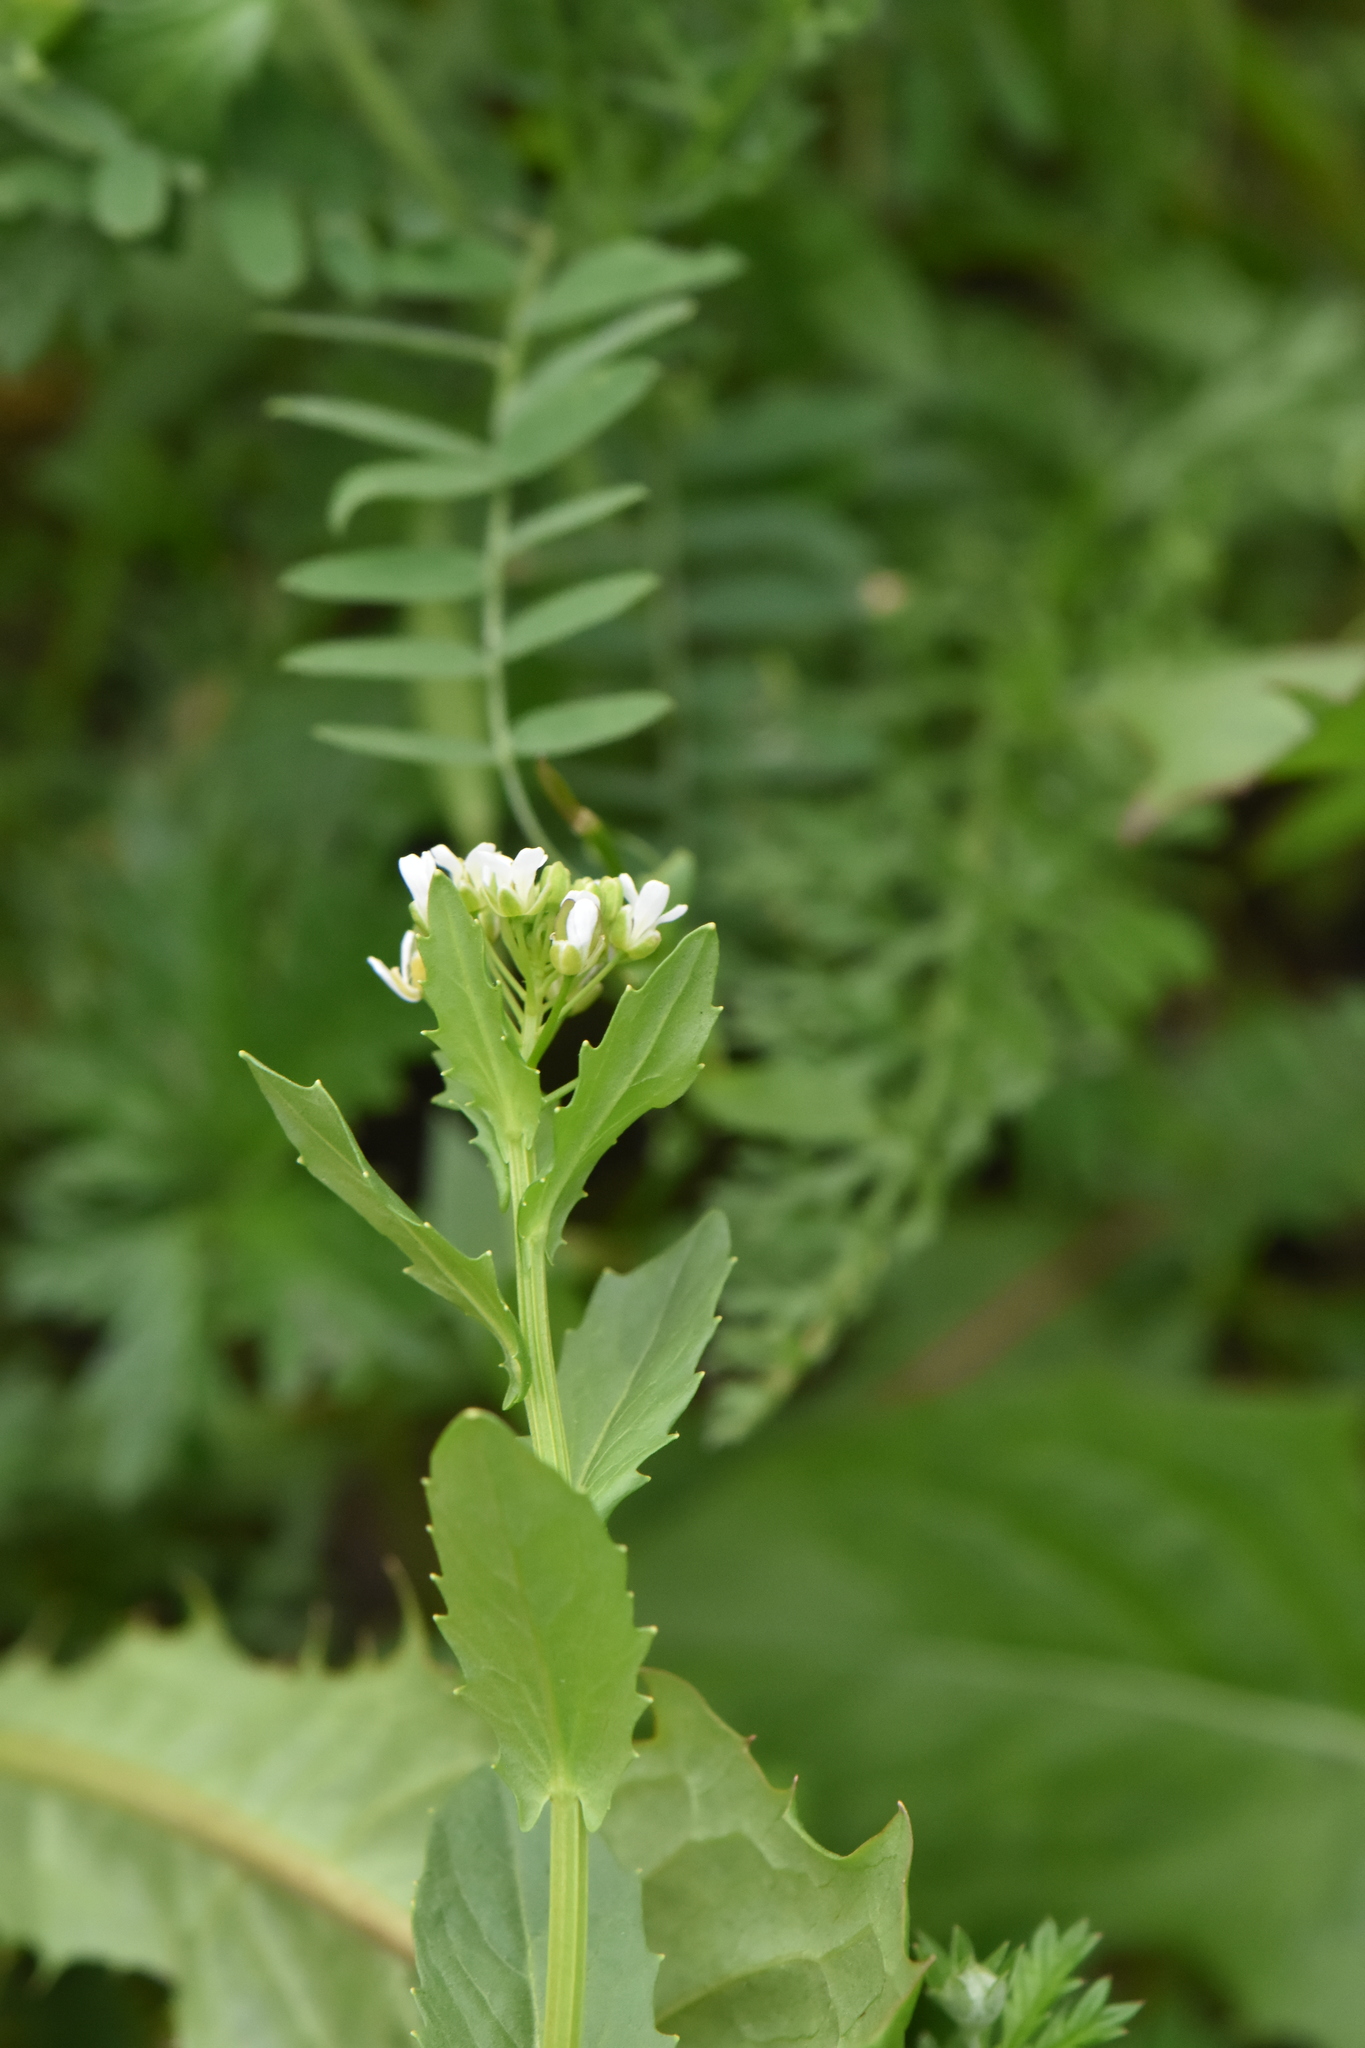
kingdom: Plantae
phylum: Tracheophyta
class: Magnoliopsida
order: Brassicales
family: Brassicaceae
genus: Thlaspi
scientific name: Thlaspi arvense
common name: Field pennycress
